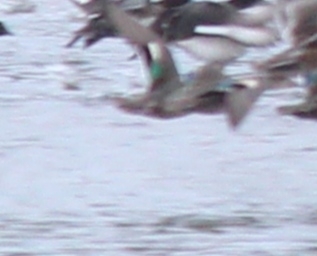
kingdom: Animalia
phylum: Chordata
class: Aves
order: Anseriformes
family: Anatidae
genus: Anas
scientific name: Anas crecca
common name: Eurasian teal
